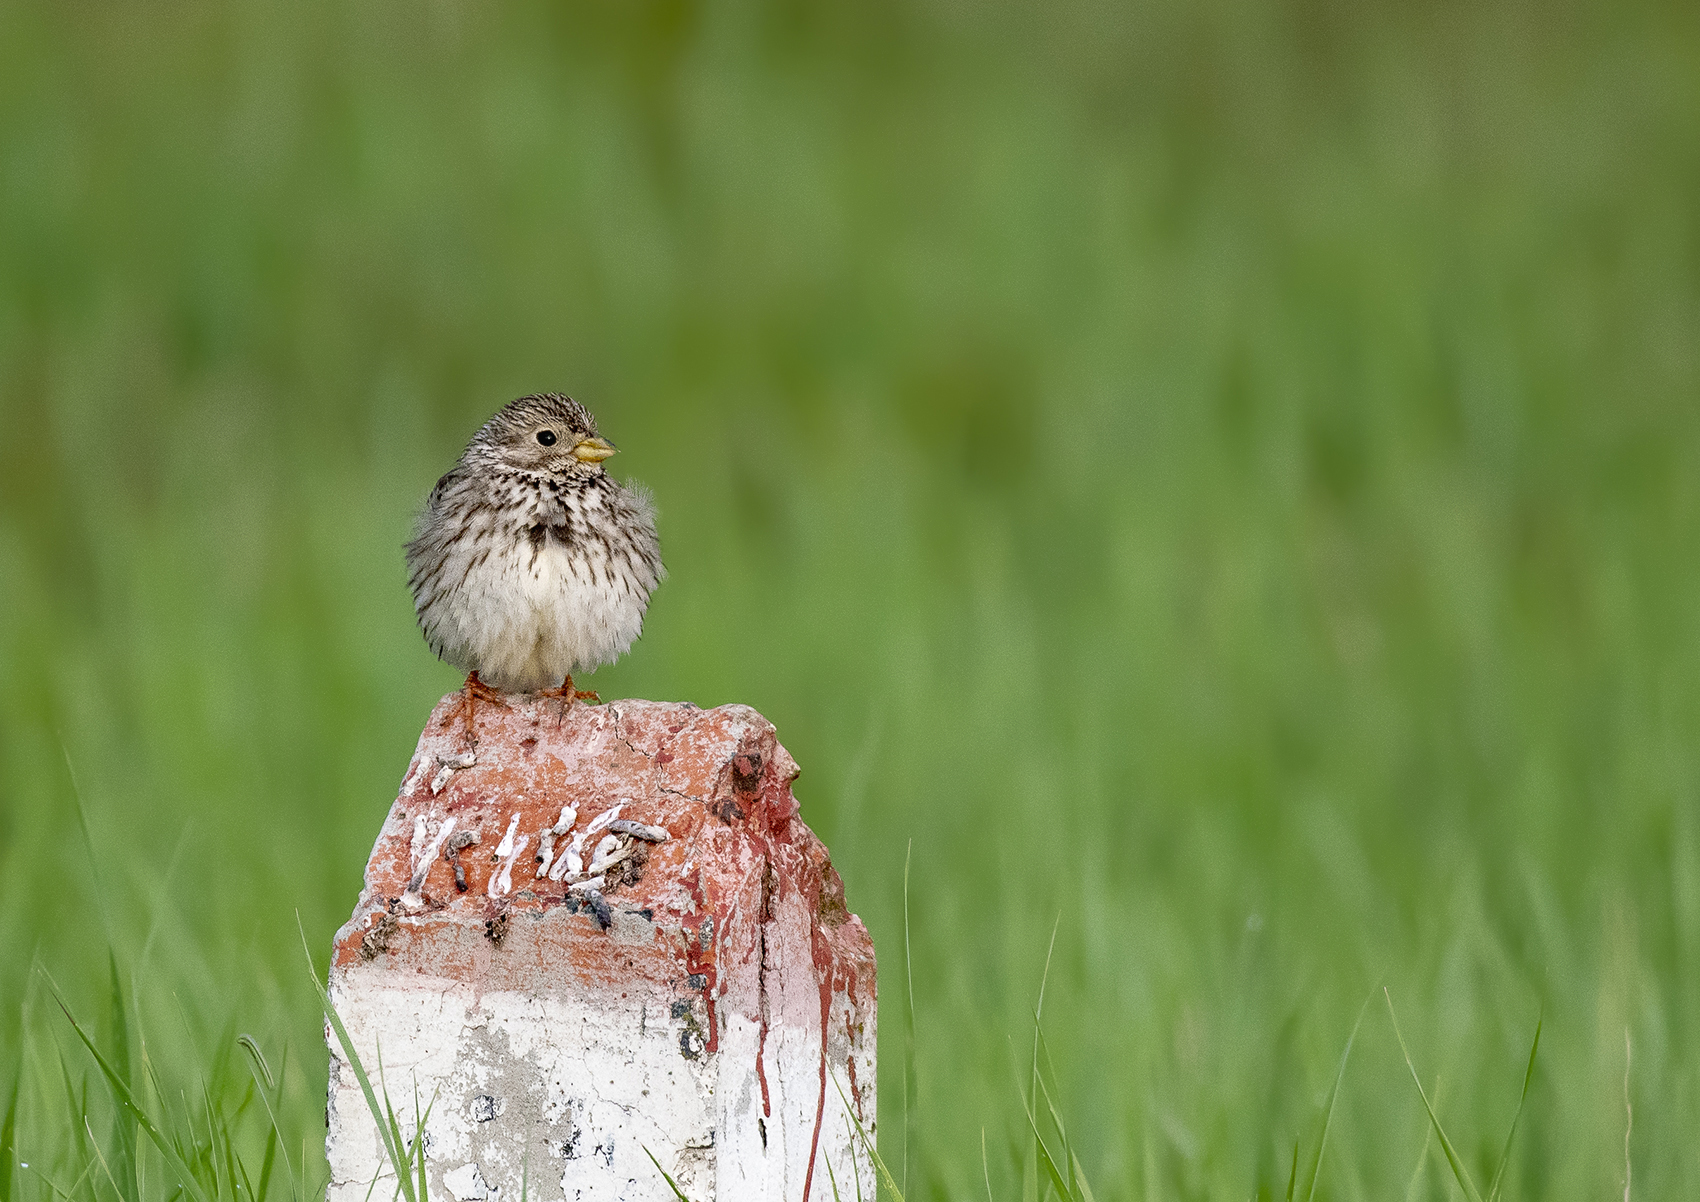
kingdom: Animalia
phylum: Chordata
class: Aves
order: Passeriformes
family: Emberizidae
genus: Emberiza
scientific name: Emberiza calandra
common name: Corn bunting
